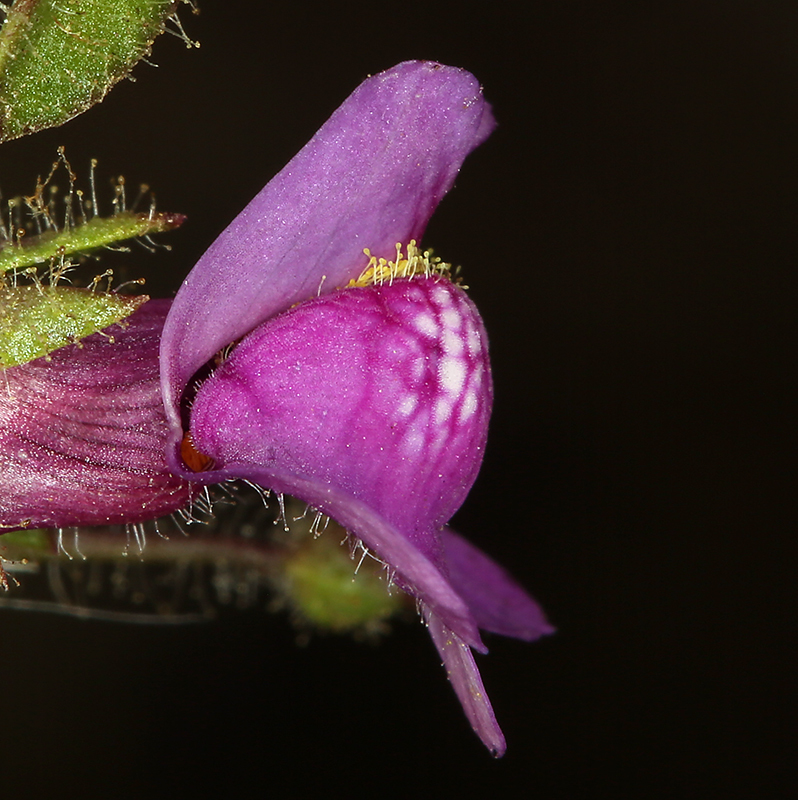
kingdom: Plantae
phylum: Tracheophyta
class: Magnoliopsida
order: Lamiales
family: Plantaginaceae
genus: Sairocarpus
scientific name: Sairocarpus nuttallianus
